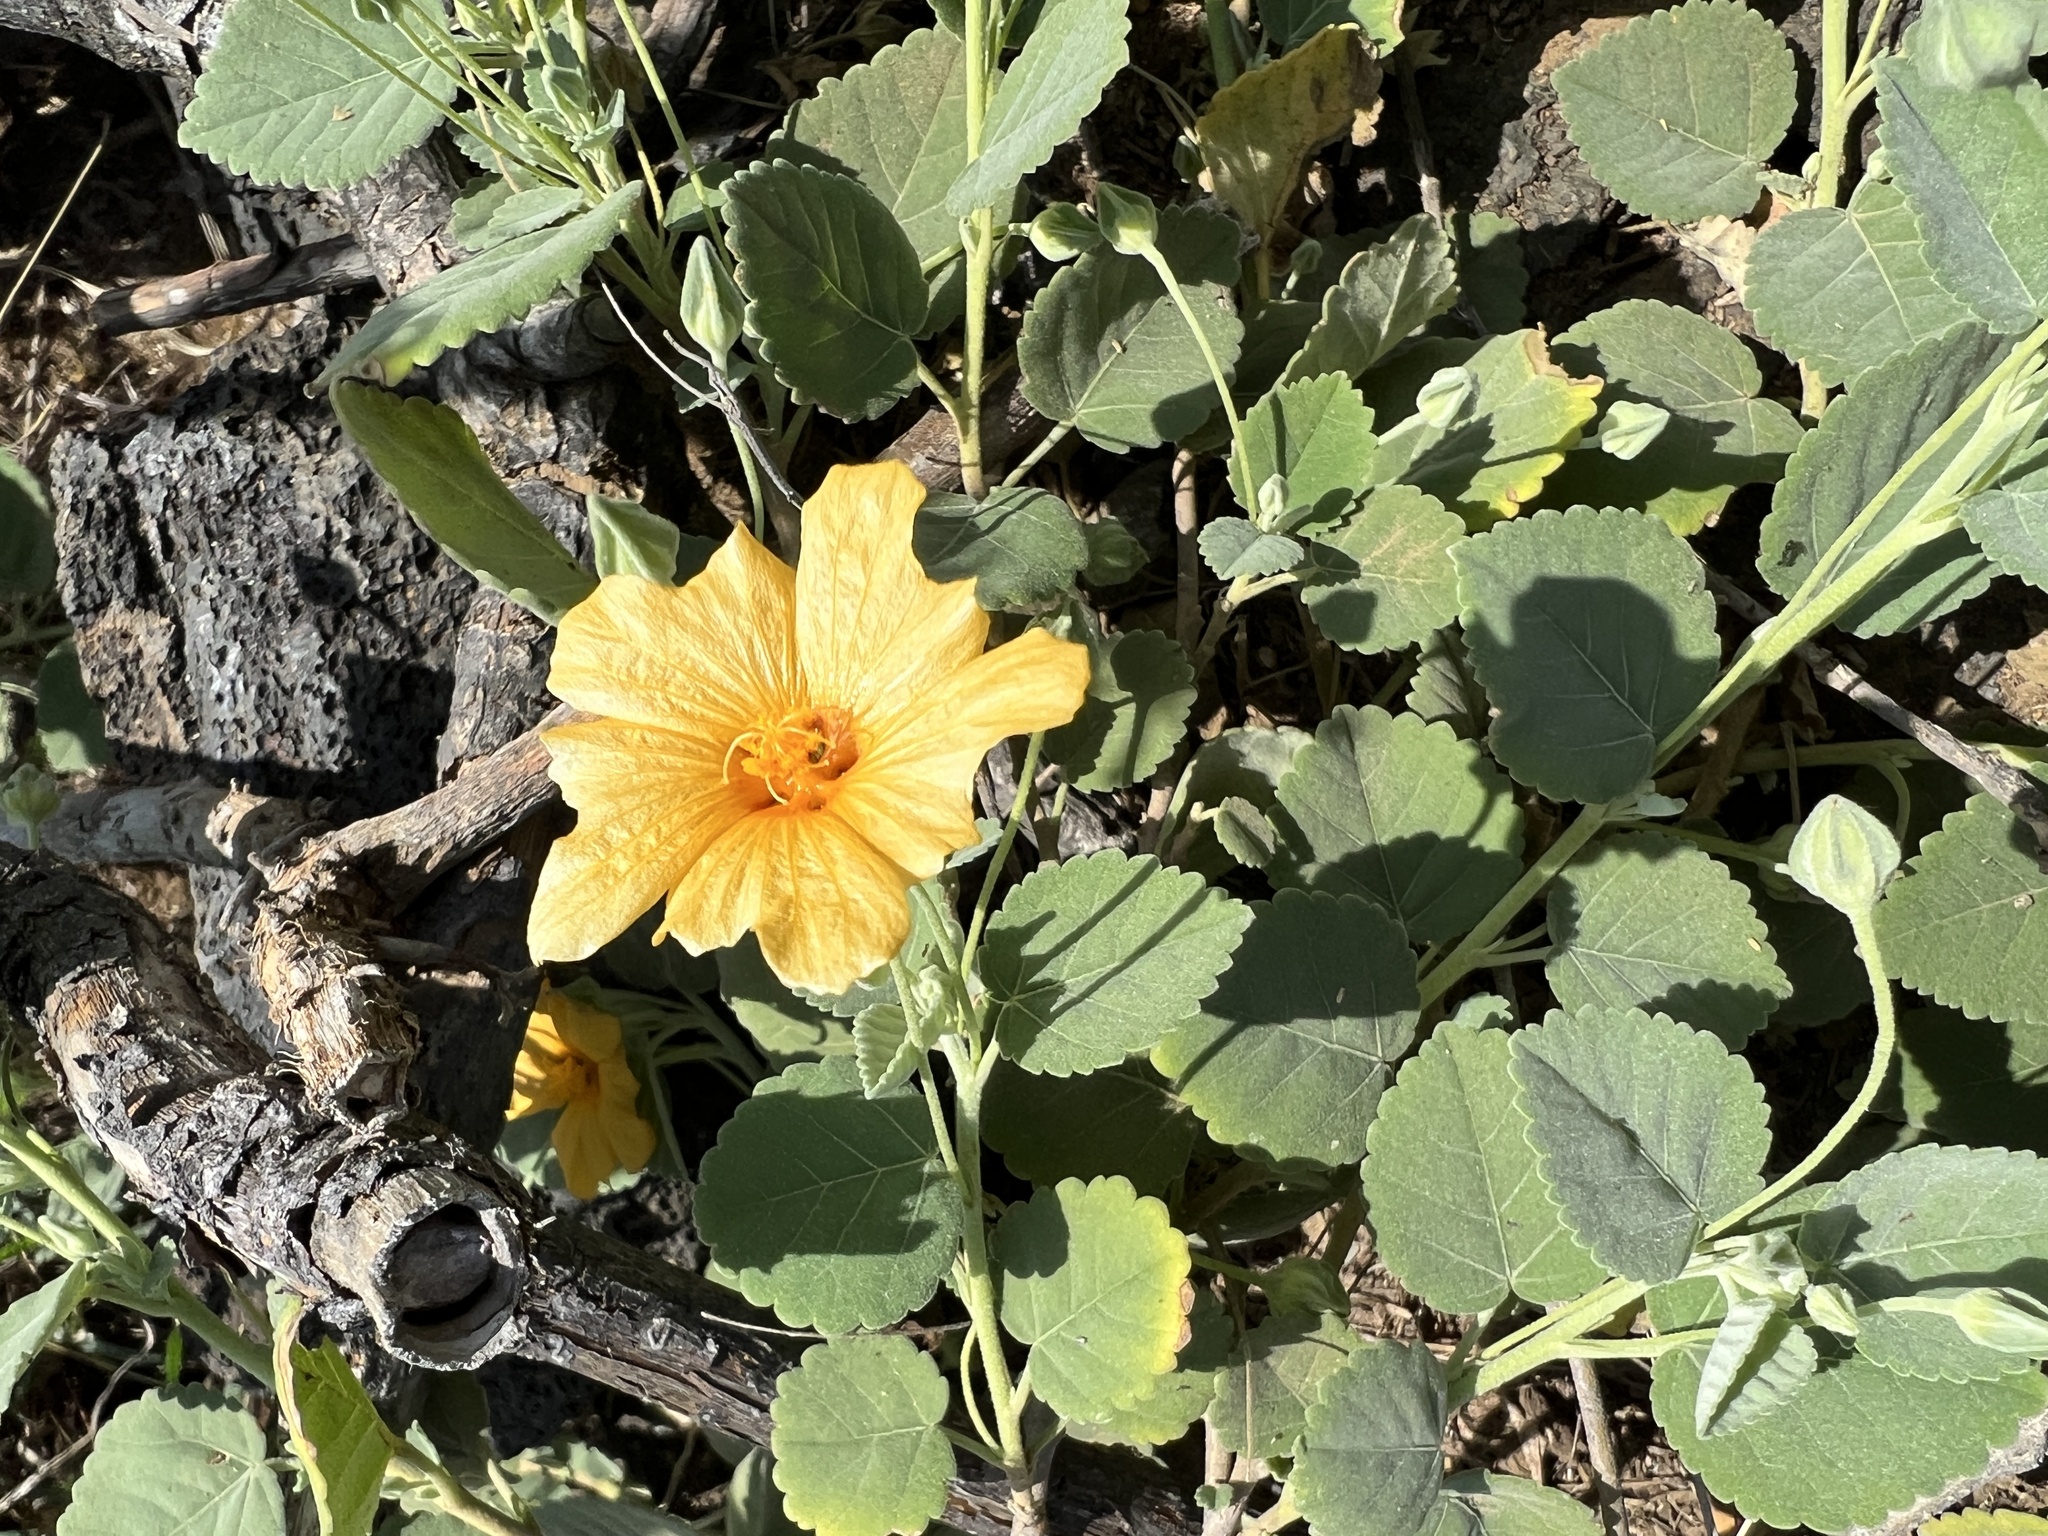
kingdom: Plantae
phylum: Tracheophyta
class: Magnoliopsida
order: Malvales
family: Malvaceae
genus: Sida
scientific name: Sida fallax
